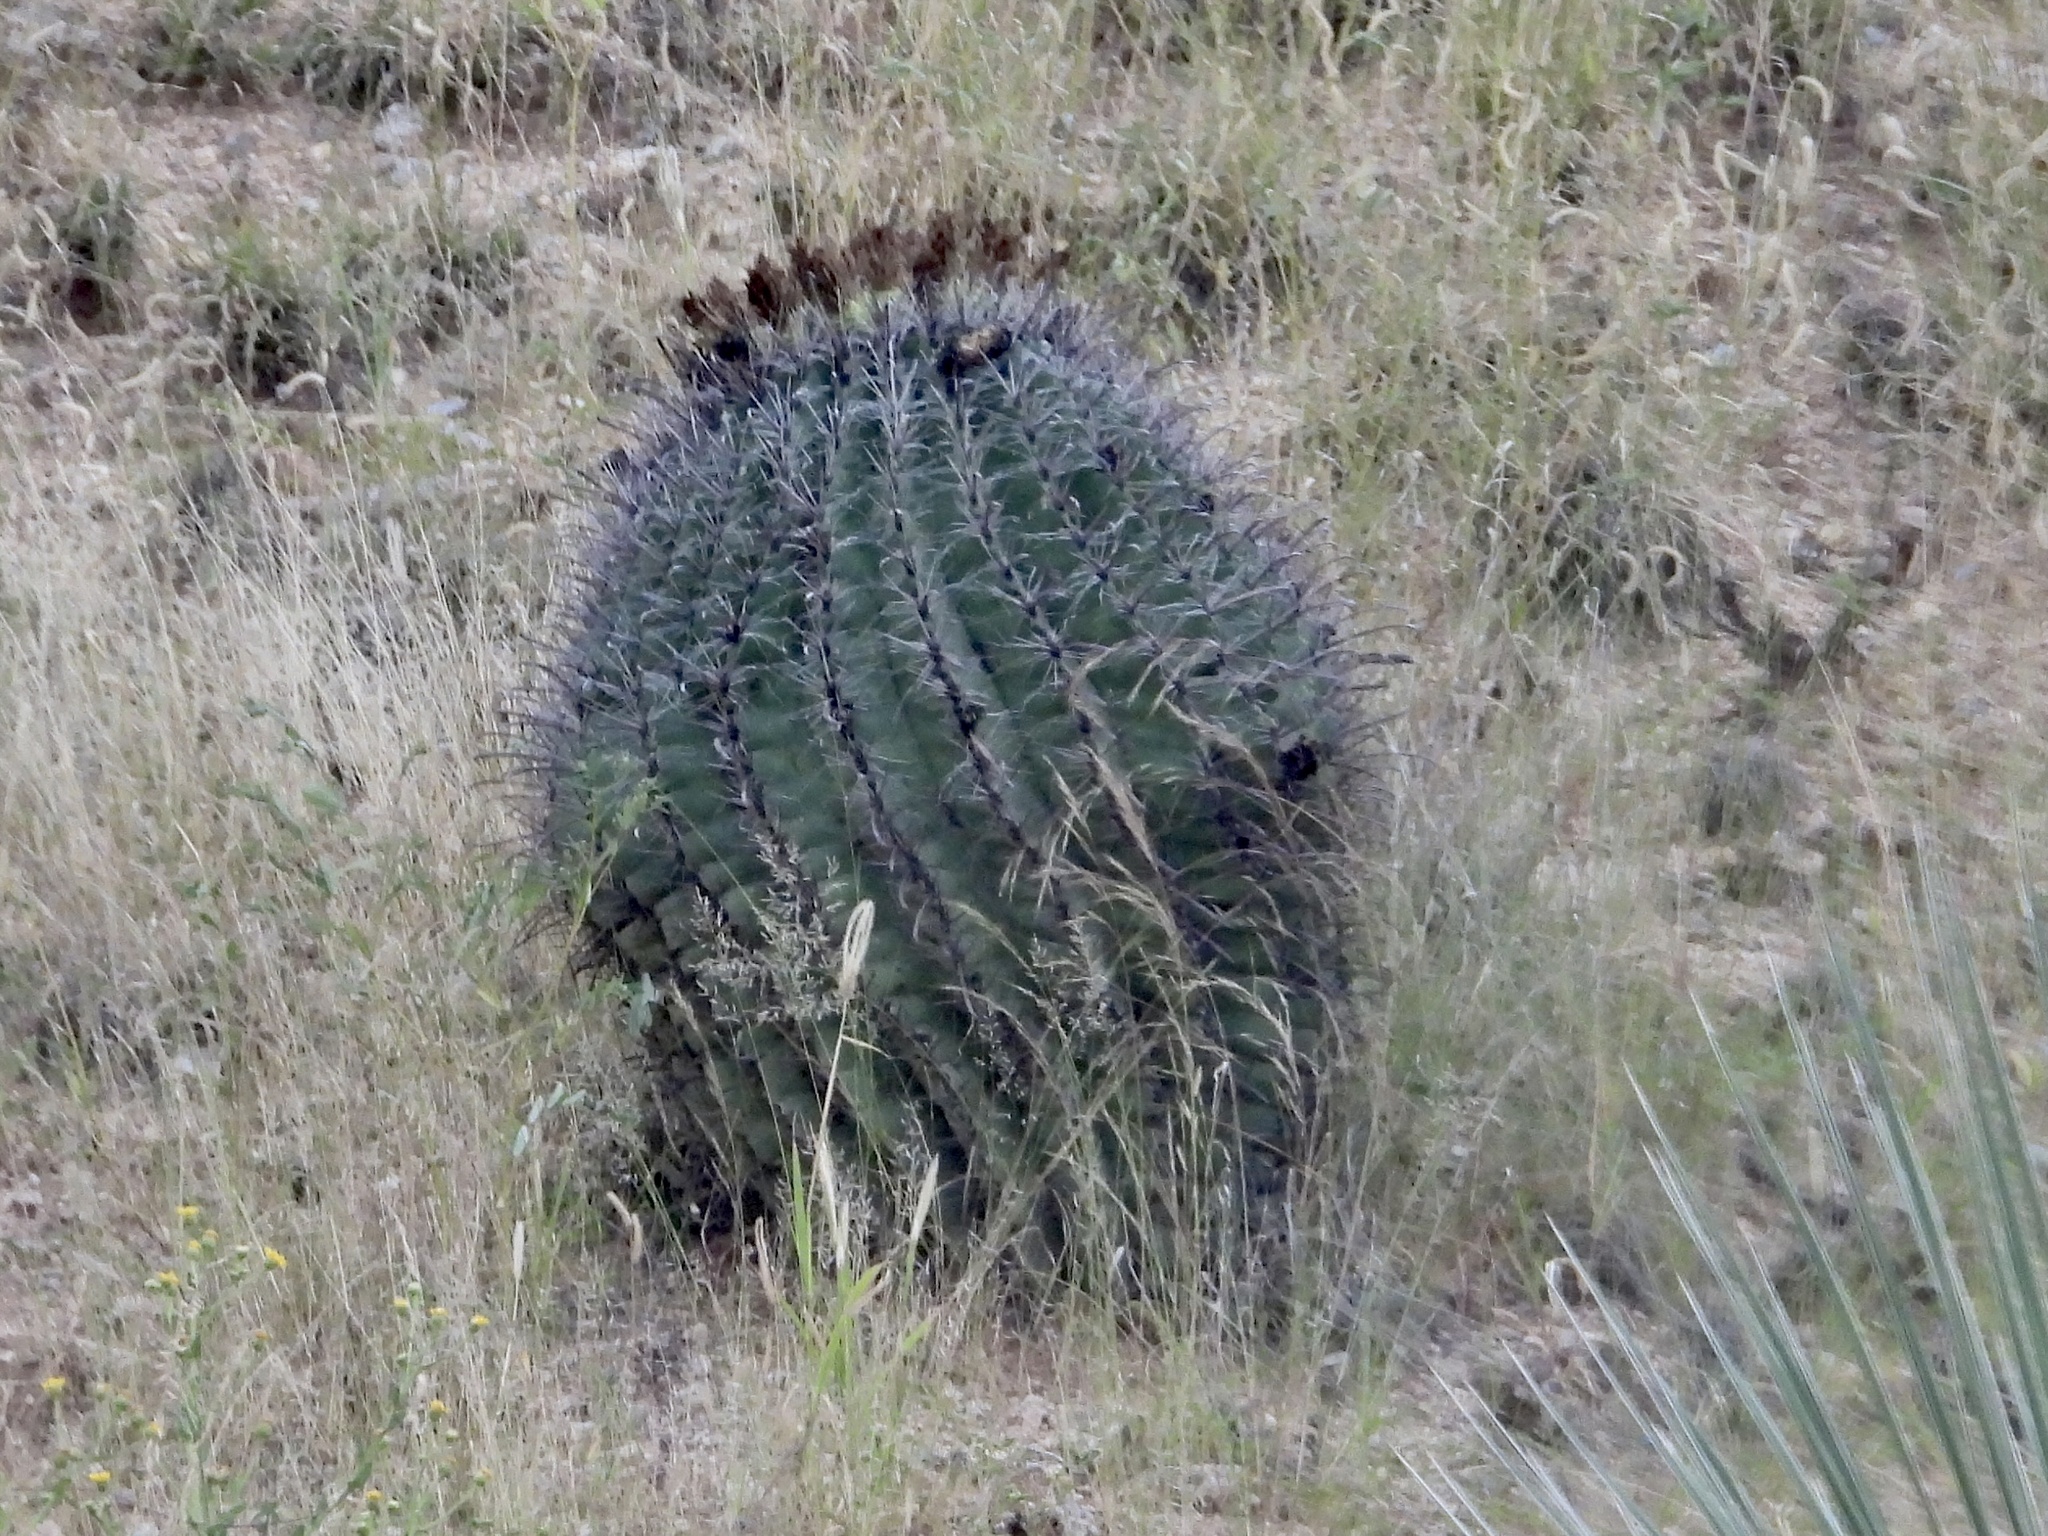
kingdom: Plantae
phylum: Tracheophyta
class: Magnoliopsida
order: Caryophyllales
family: Cactaceae
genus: Ferocactus
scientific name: Ferocactus wislizeni
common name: Candy barrel cactus
